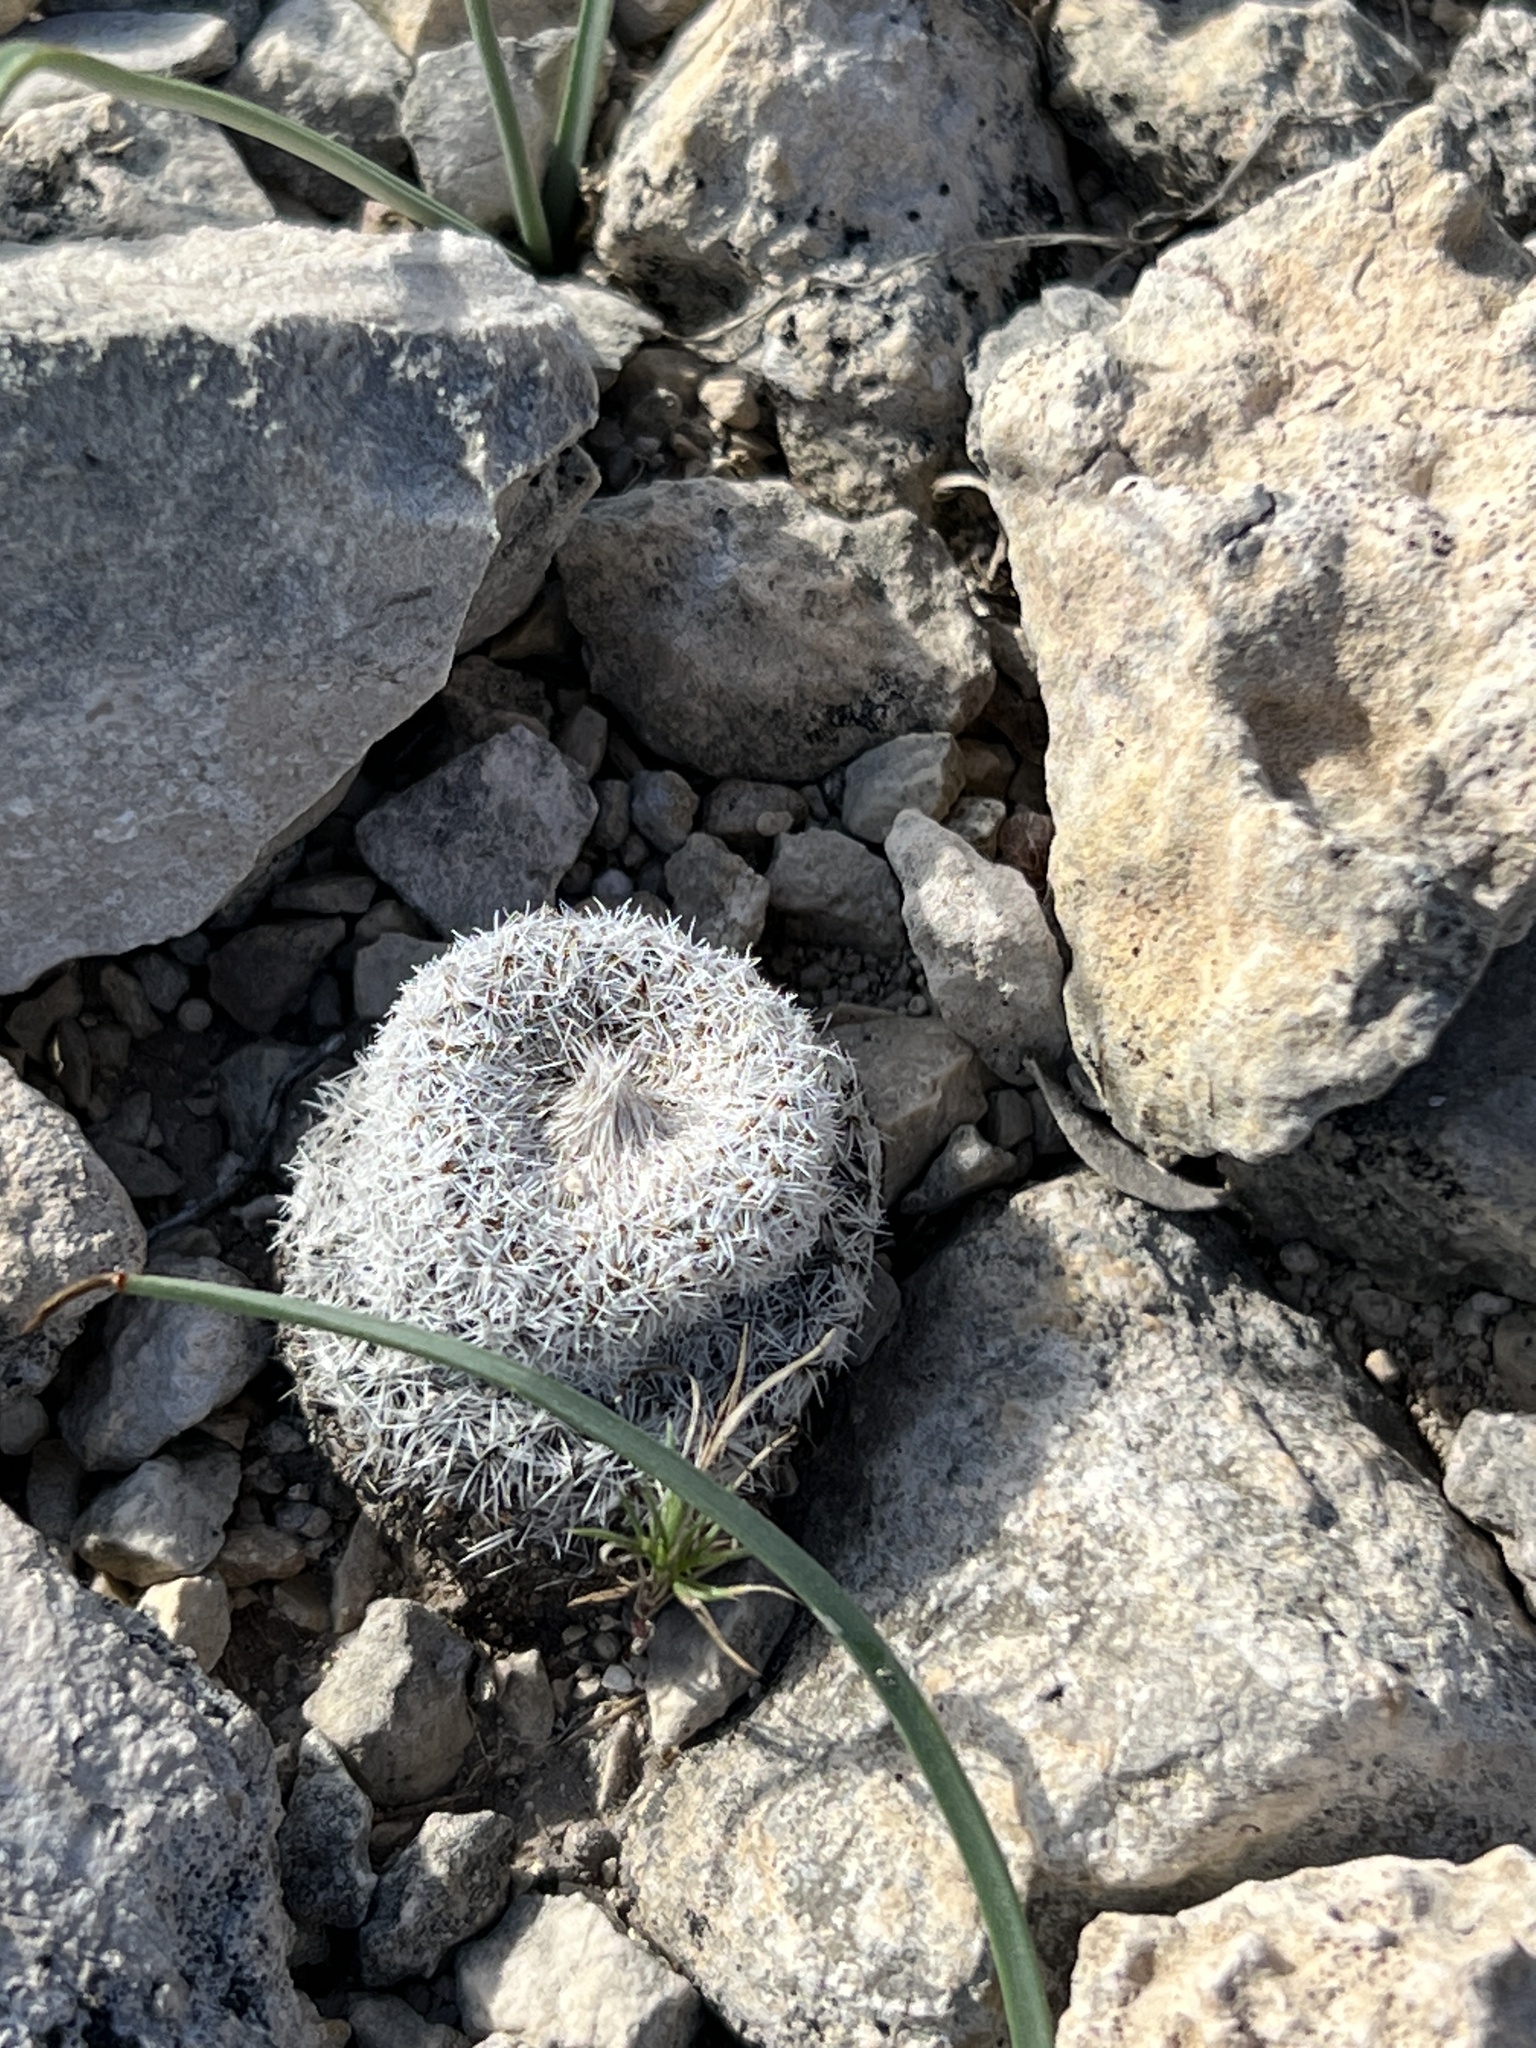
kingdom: Plantae
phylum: Tracheophyta
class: Magnoliopsida
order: Caryophyllales
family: Cactaceae
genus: Epithelantha
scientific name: Epithelantha micromeris
